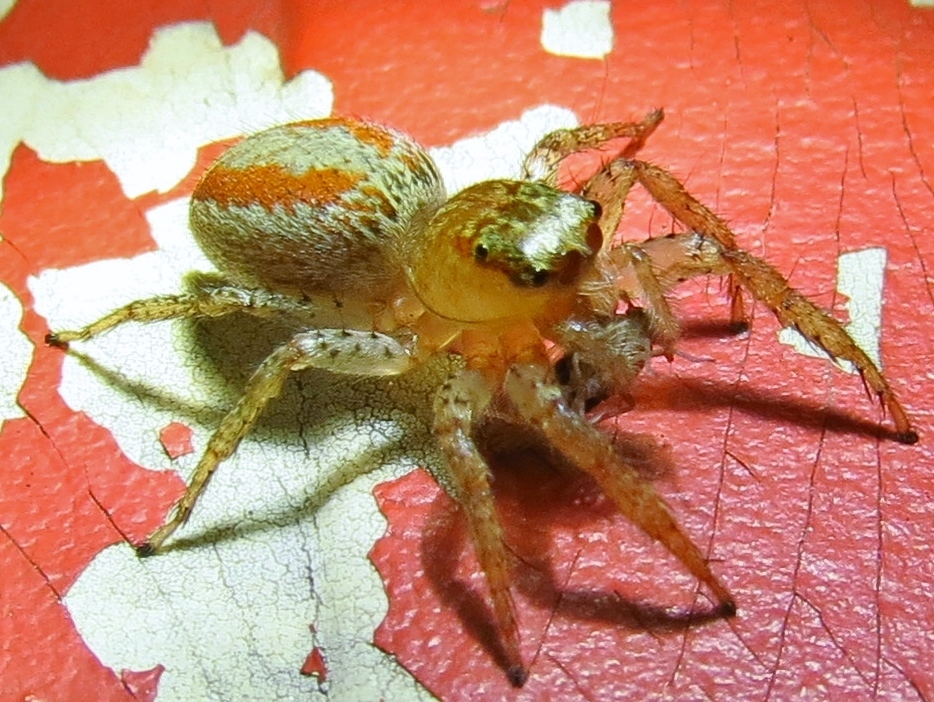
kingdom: Animalia
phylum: Arthropoda
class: Arachnida
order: Araneae
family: Salticidae
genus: Maevia
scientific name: Maevia inclemens
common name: Dimorphic jumper
